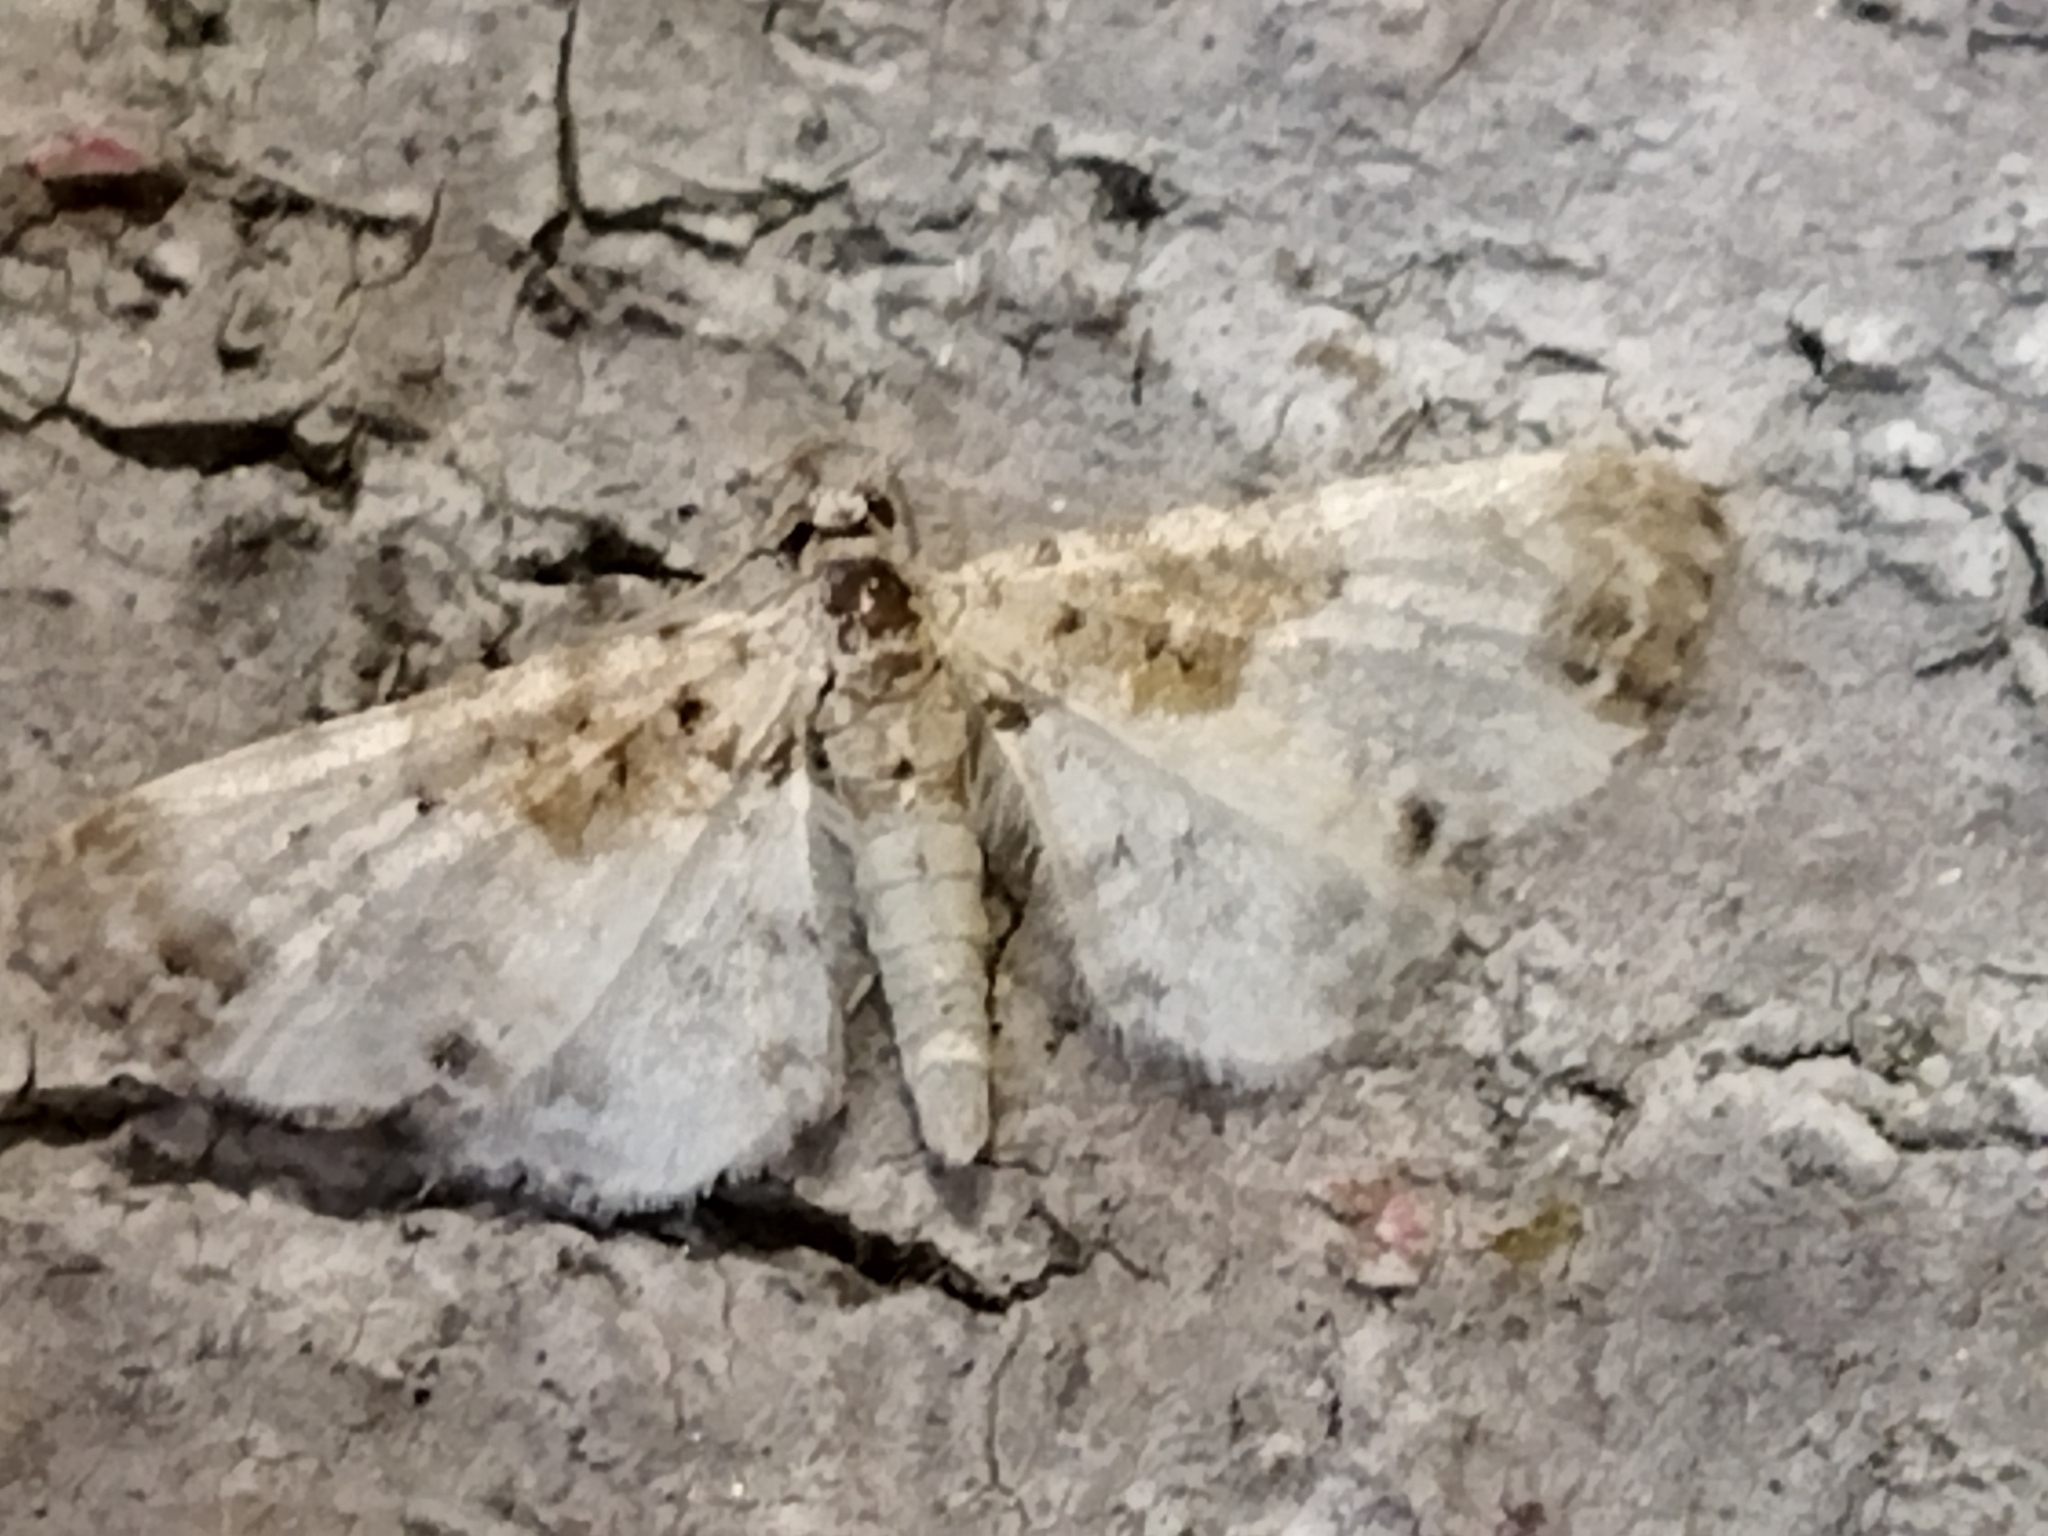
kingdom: Animalia
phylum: Arthropoda
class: Insecta
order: Lepidoptera
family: Geometridae
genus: Eupithecia
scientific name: Eupithecia breviculata
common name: Rusty-shouldered pug
